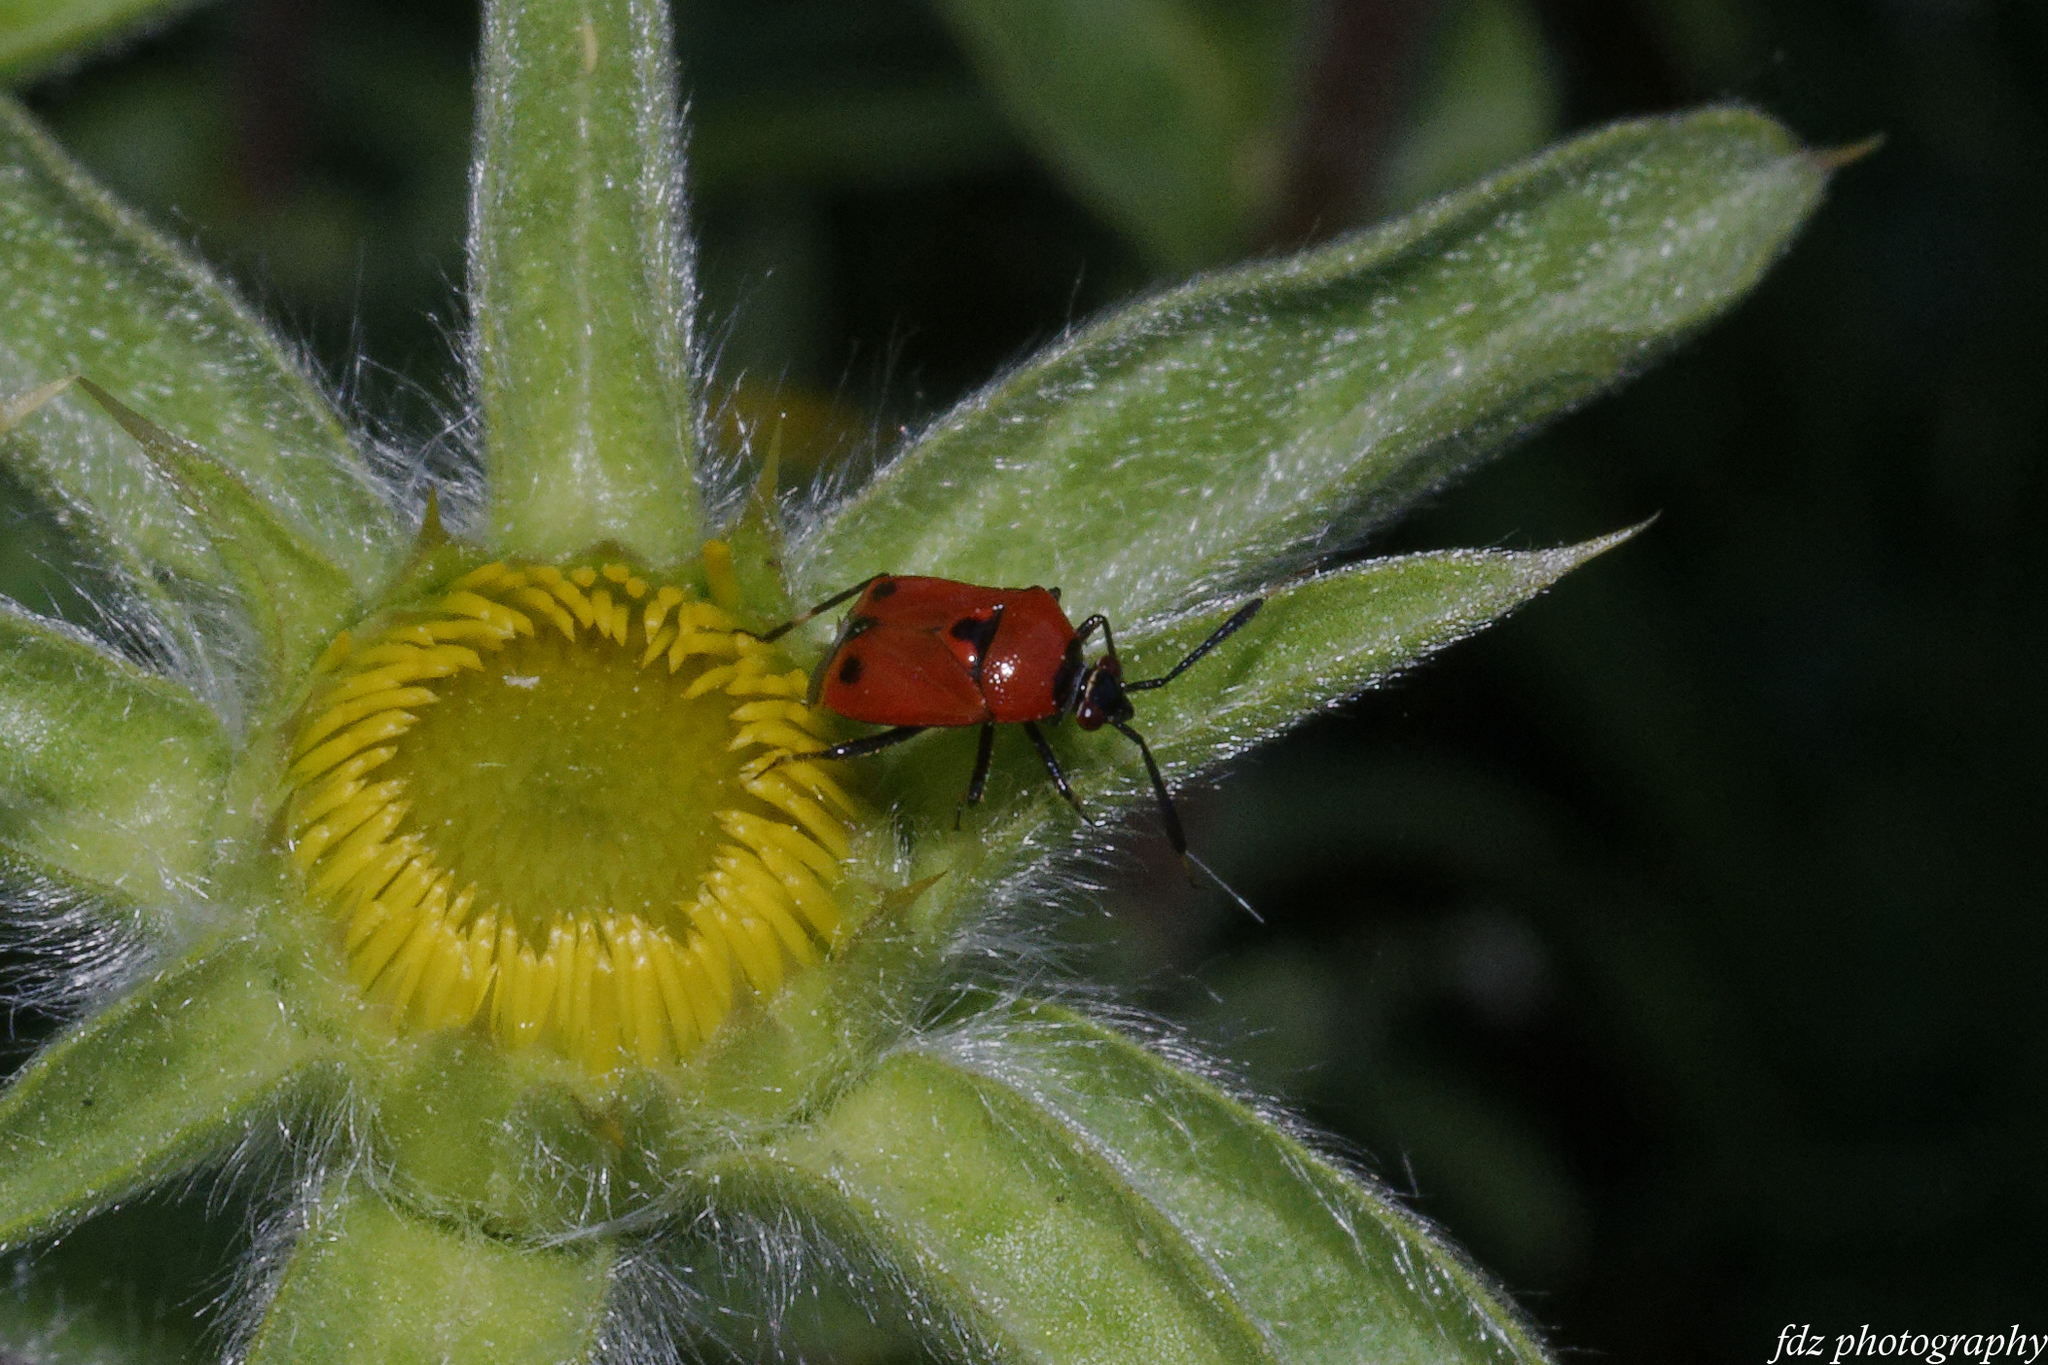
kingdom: Animalia
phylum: Arthropoda
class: Insecta
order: Hemiptera
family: Miridae
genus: Deraeocoris
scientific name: Deraeocoris punctum
